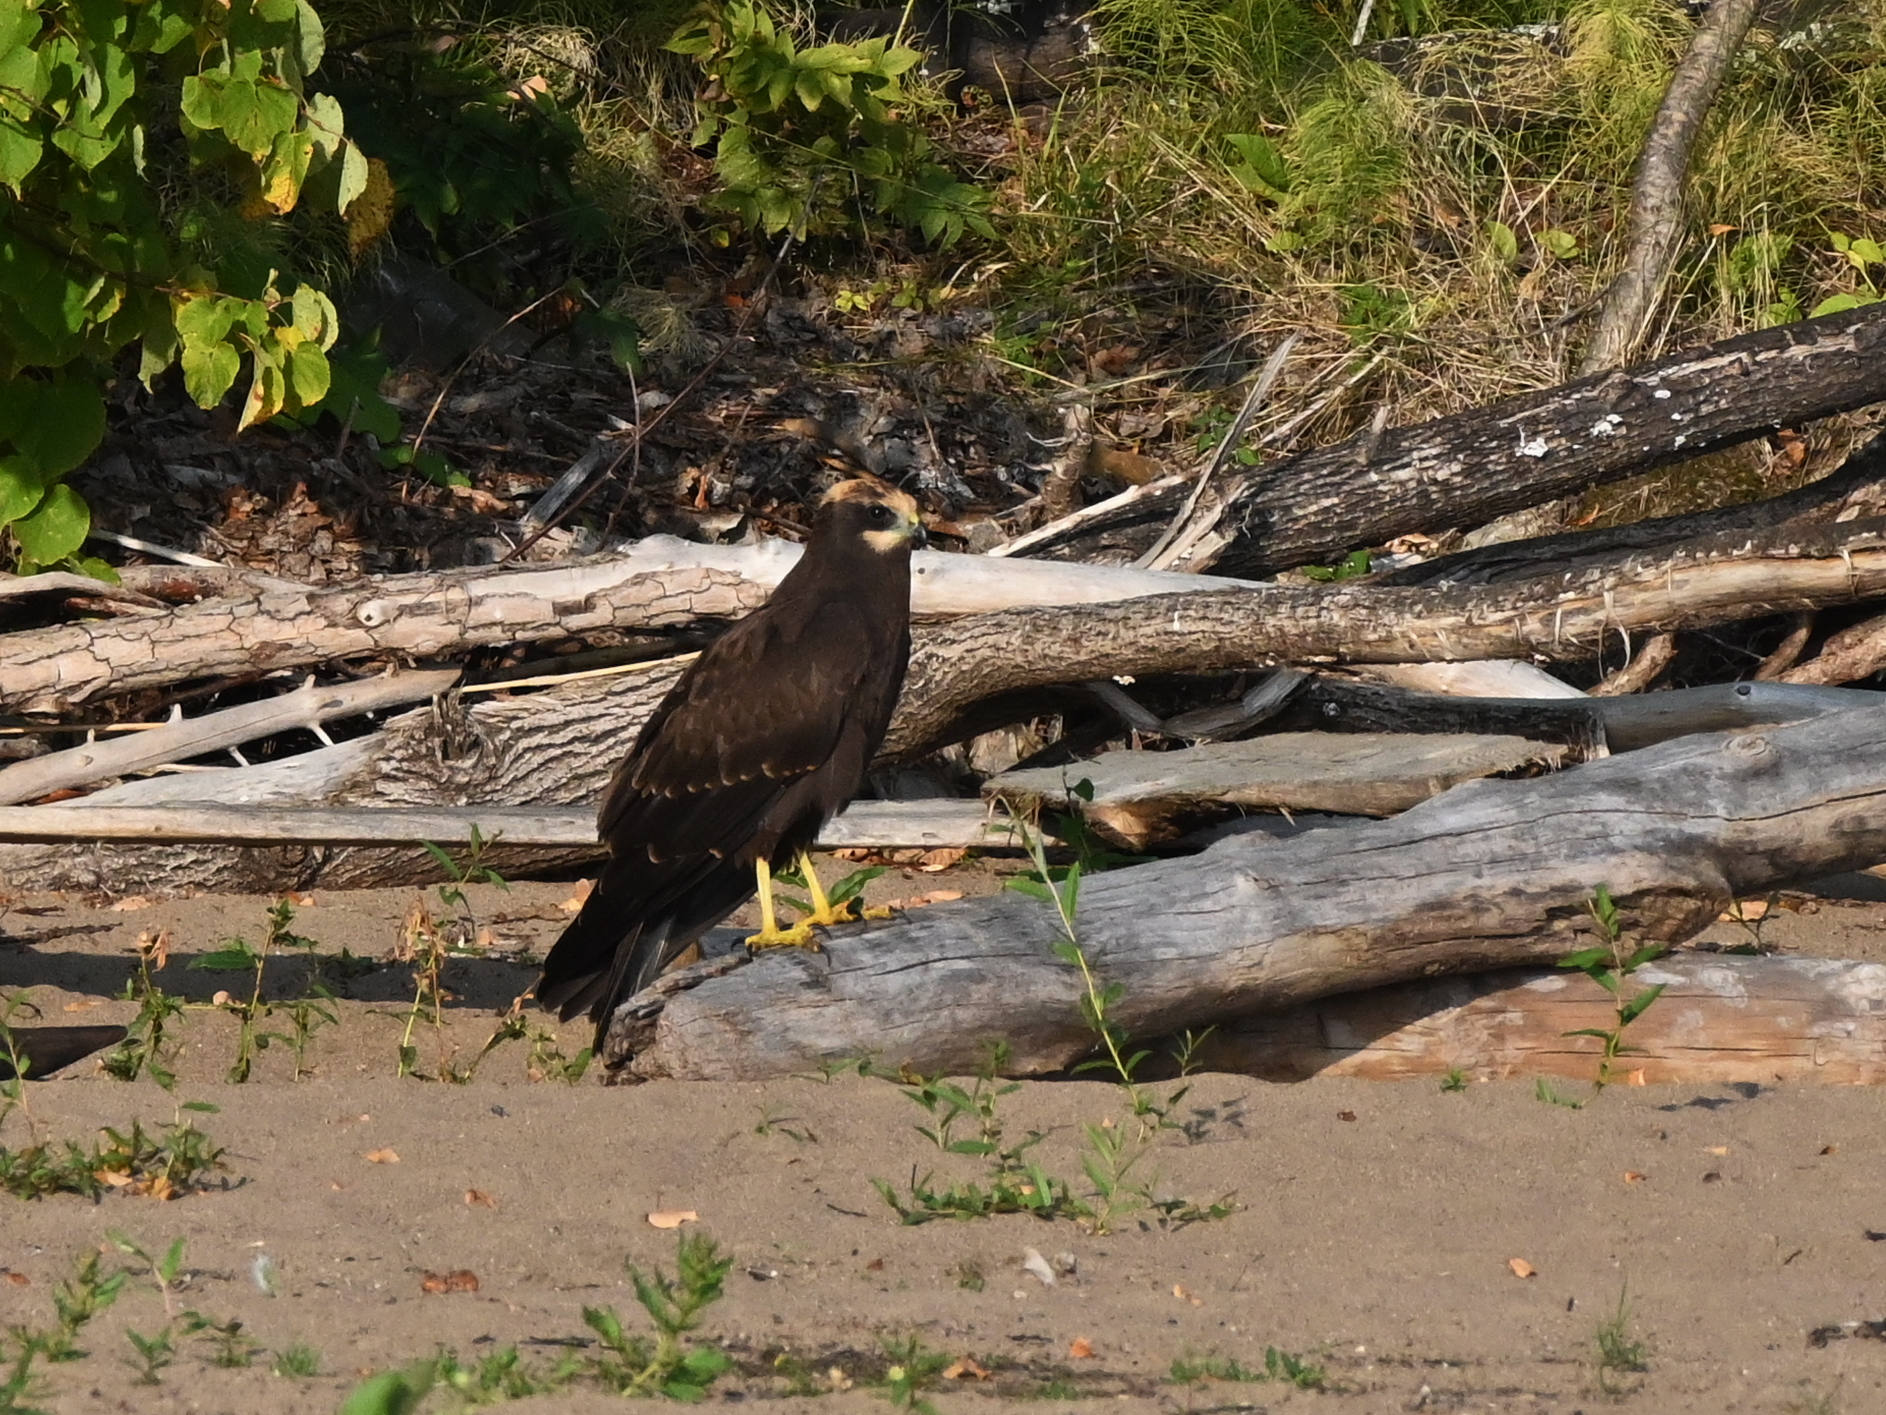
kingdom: Animalia
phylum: Chordata
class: Aves
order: Accipitriformes
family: Accipitridae
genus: Circus
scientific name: Circus aeruginosus
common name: Western marsh harrier
